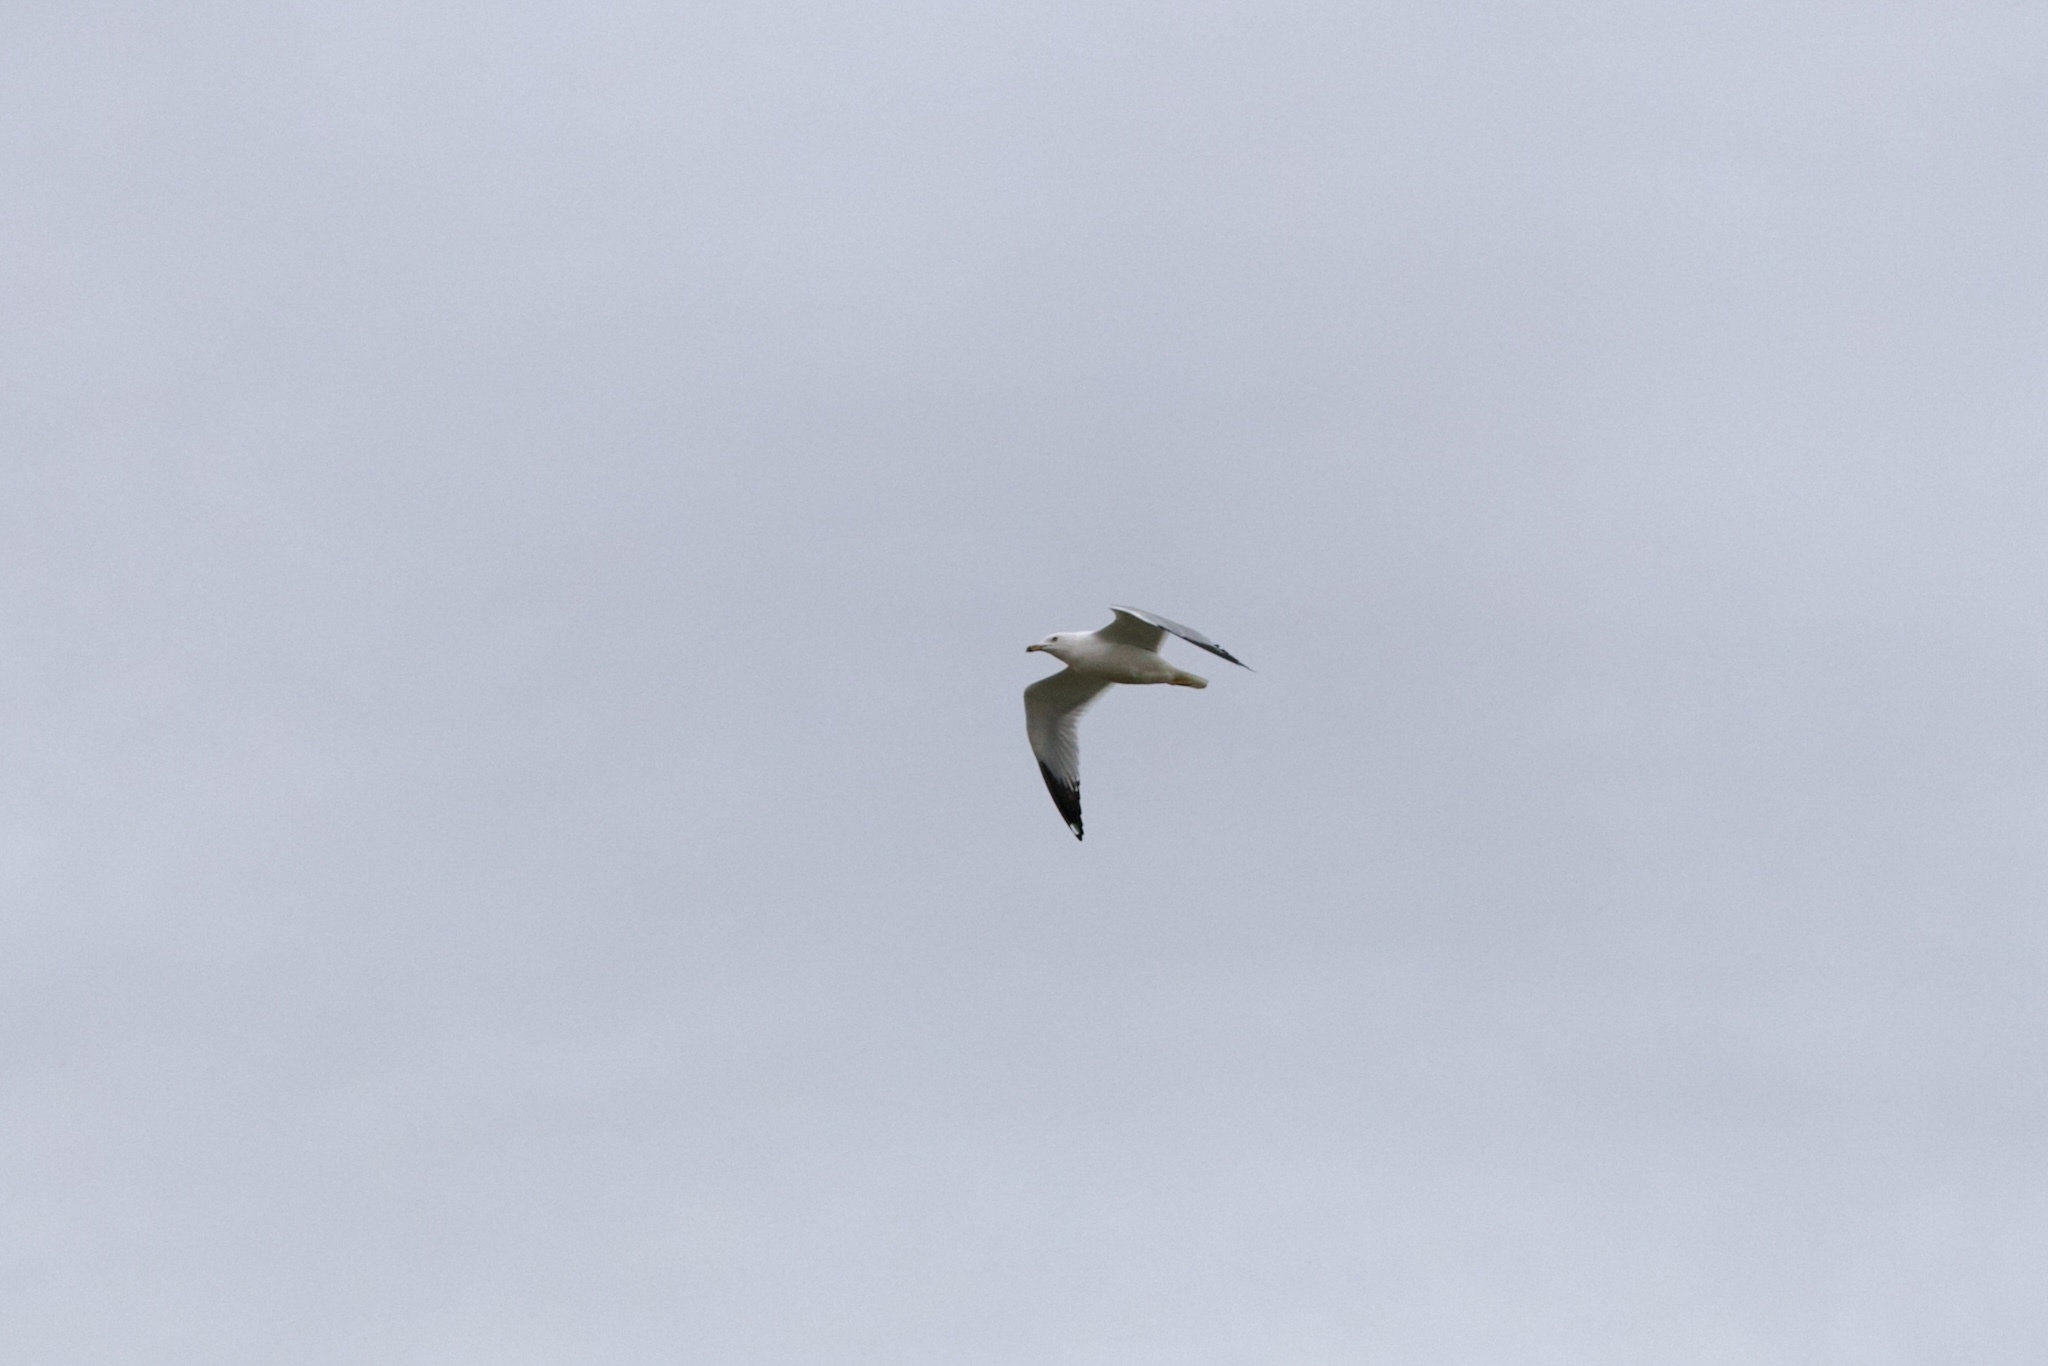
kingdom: Animalia
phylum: Chordata
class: Aves
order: Charadriiformes
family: Laridae
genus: Larus
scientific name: Larus delawarensis
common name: Ring-billed gull
